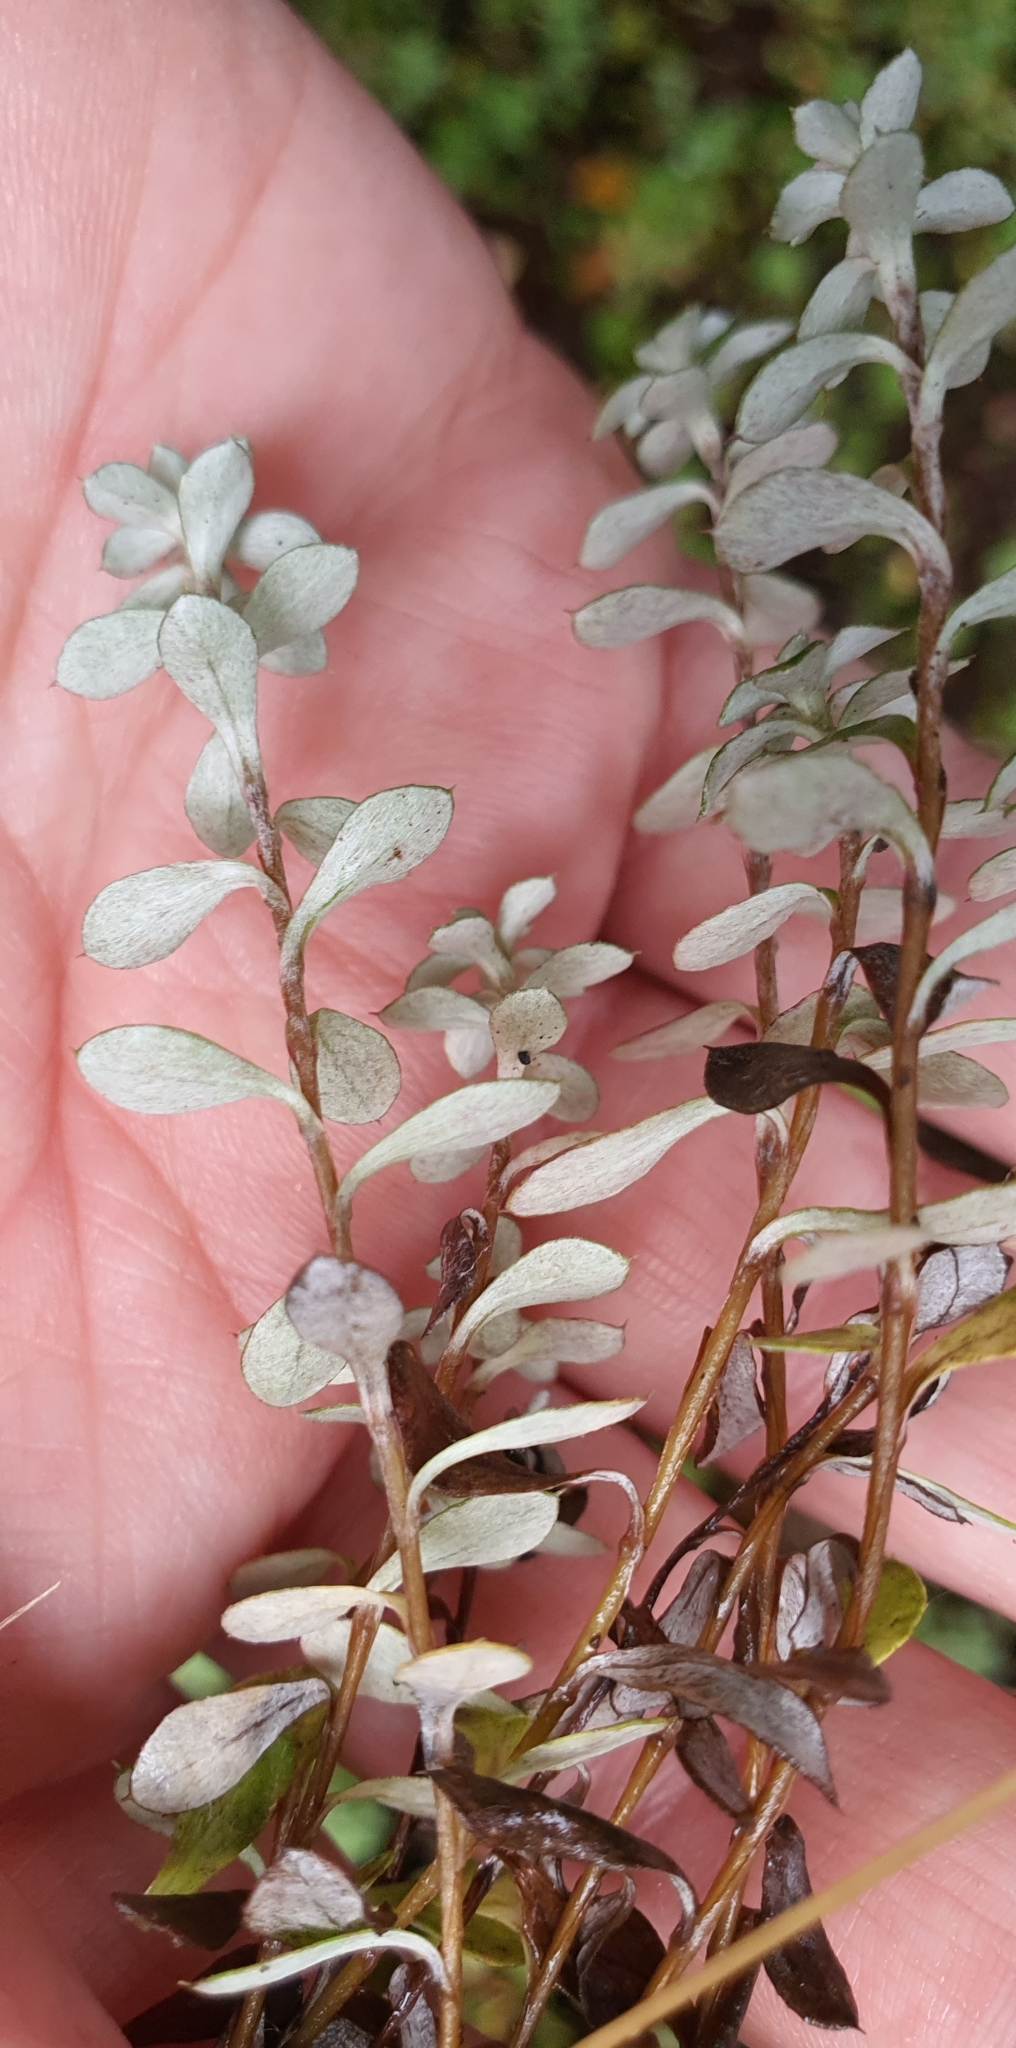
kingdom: Plantae
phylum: Tracheophyta
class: Magnoliopsida
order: Asterales
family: Asteraceae
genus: Anaphalioides
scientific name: Anaphalioides bellidioides
